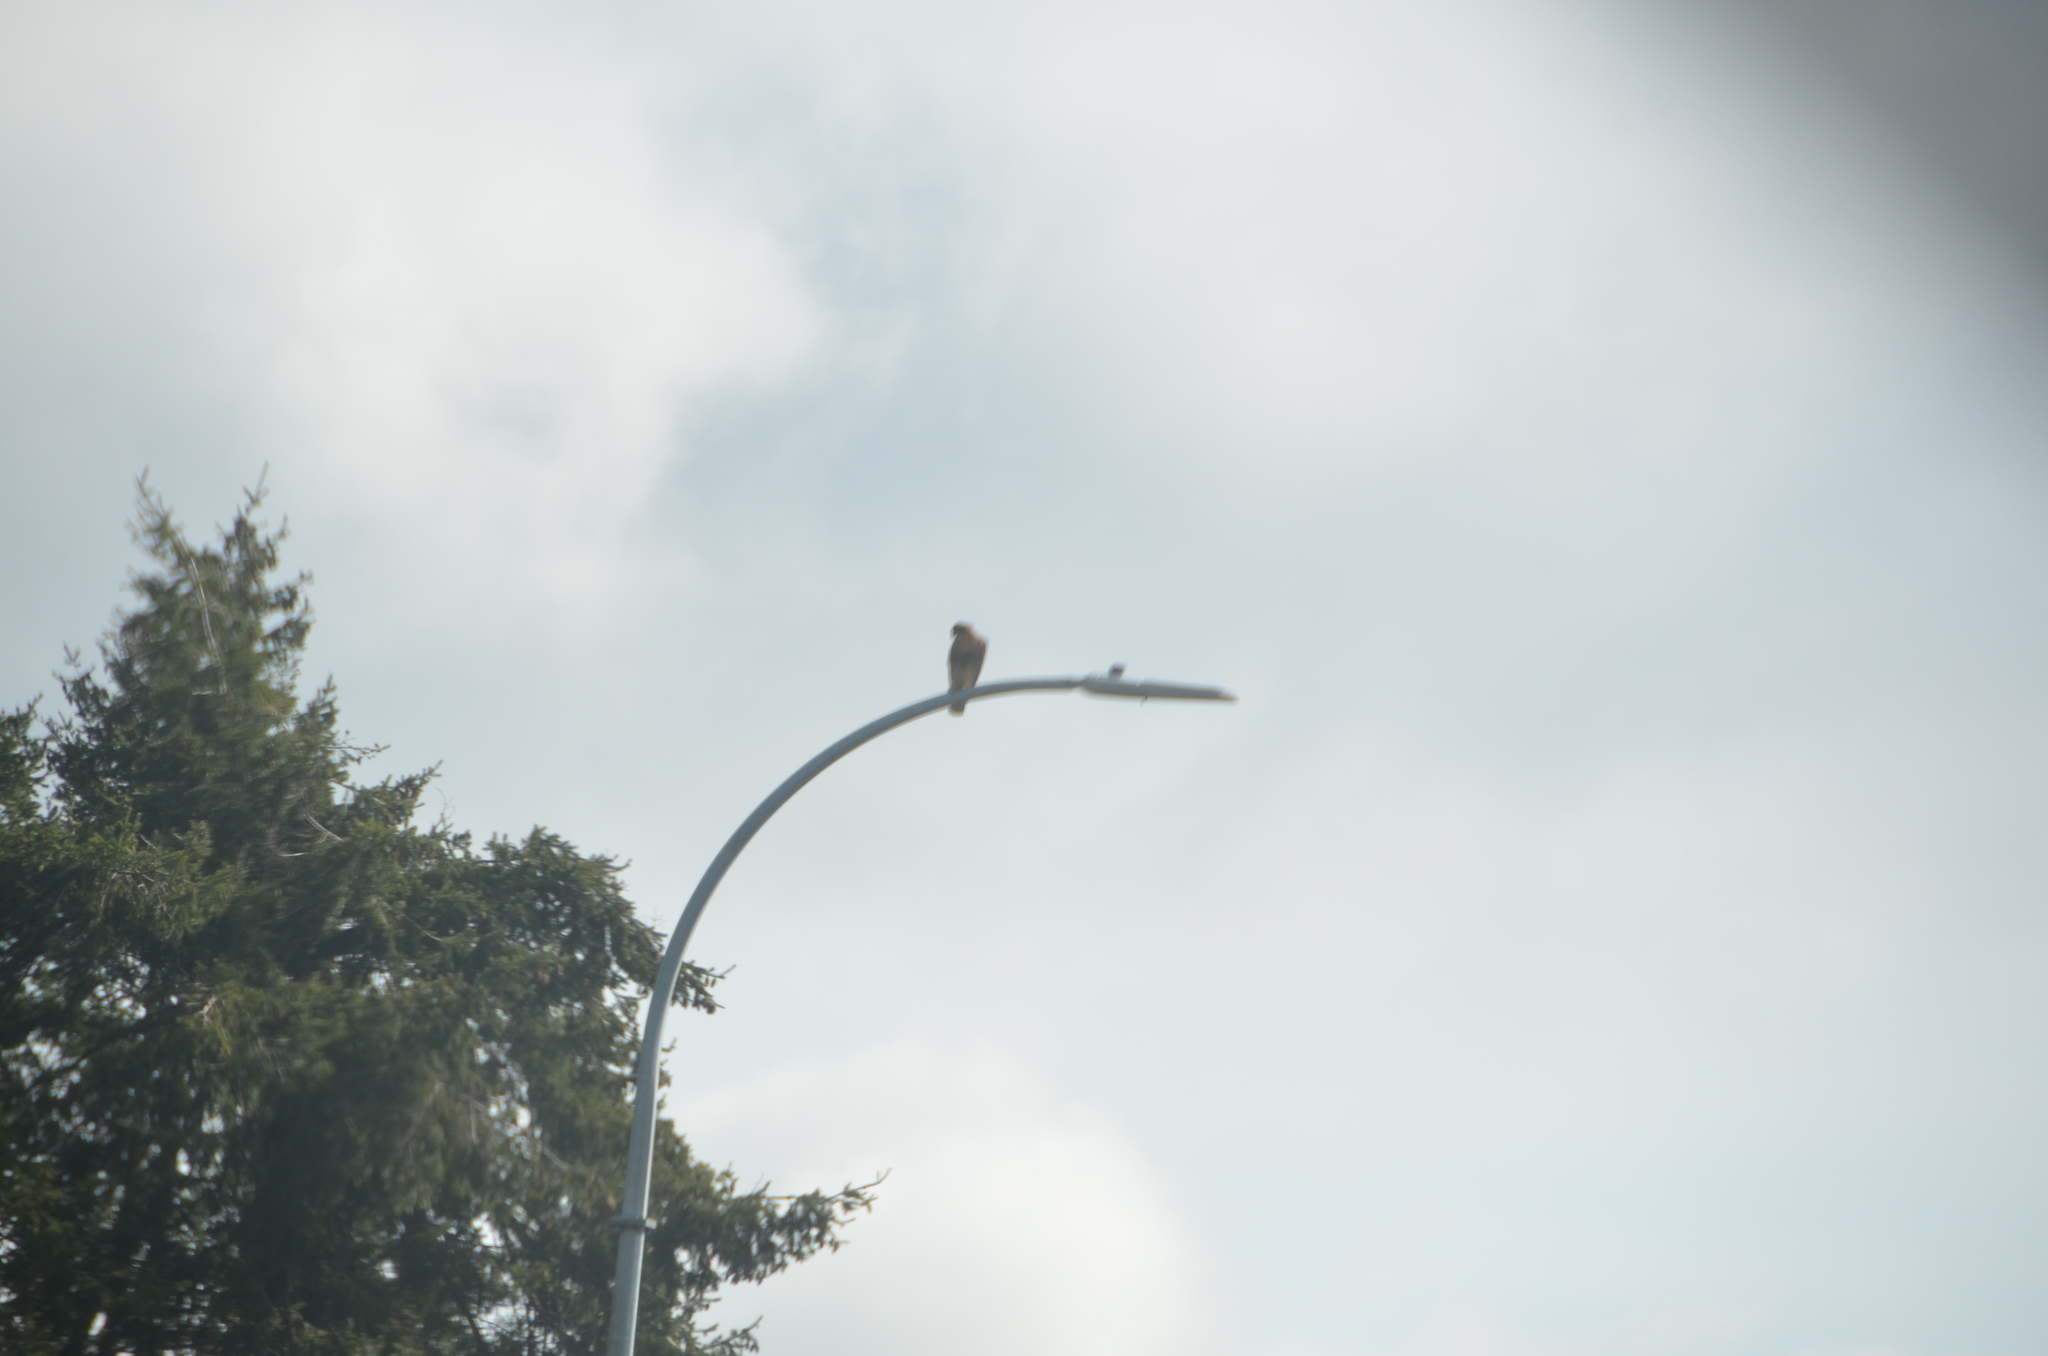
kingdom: Animalia
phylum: Chordata
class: Aves
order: Accipitriformes
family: Accipitridae
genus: Buteo
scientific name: Buteo jamaicensis
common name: Red-tailed hawk
